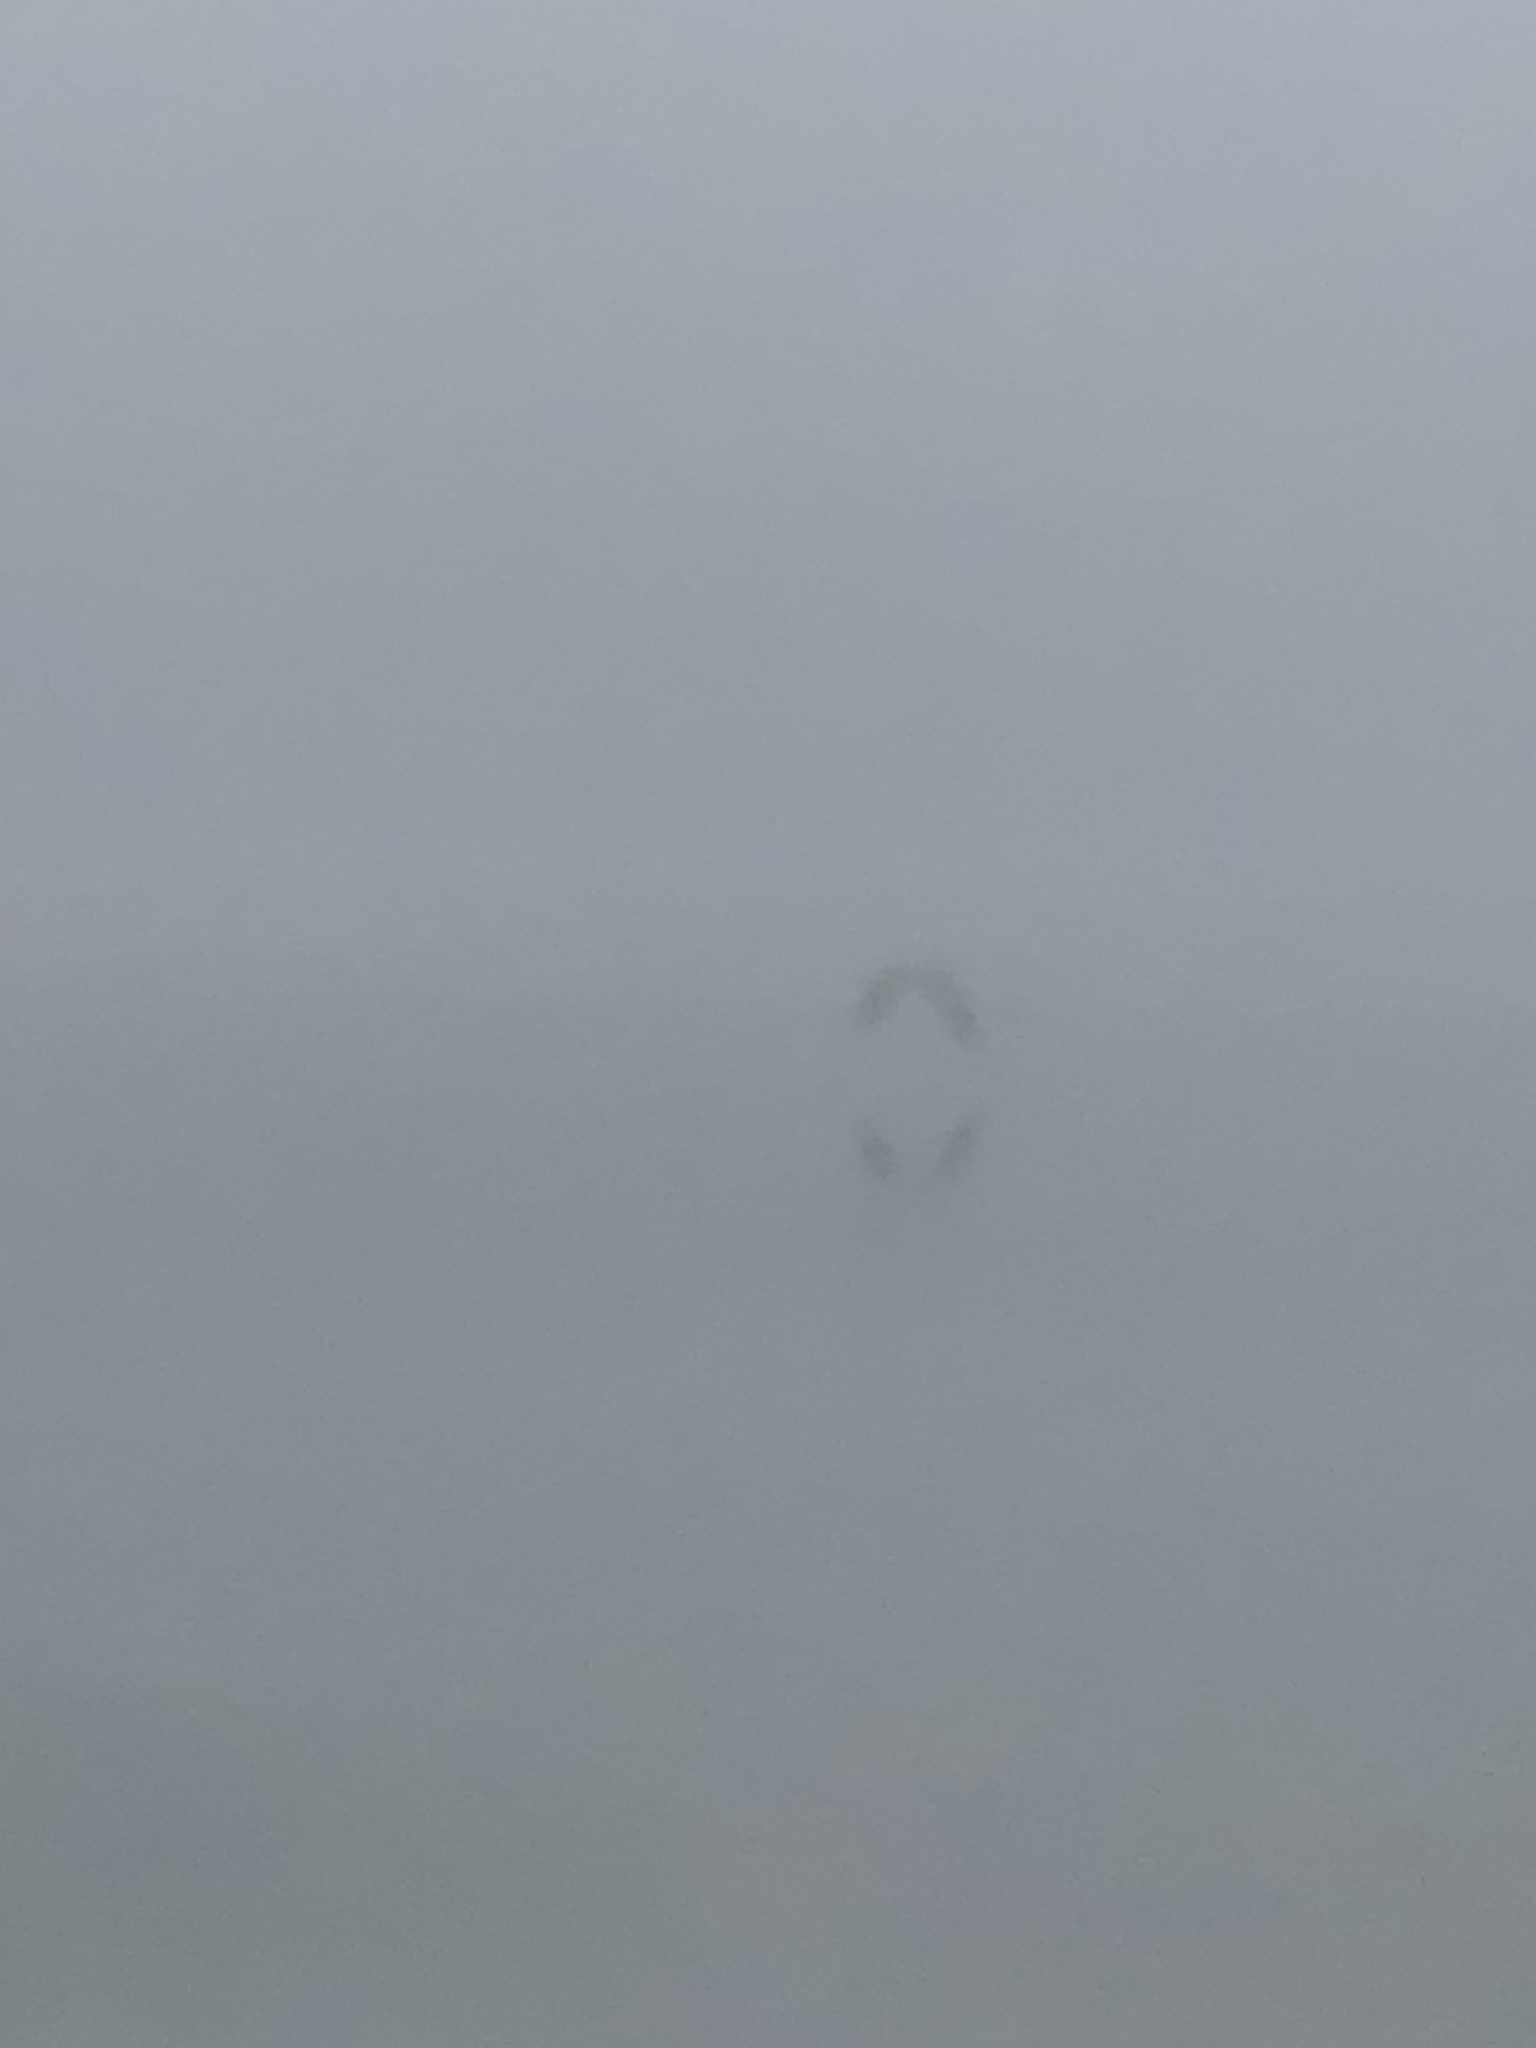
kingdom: Animalia
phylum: Chordata
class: Aves
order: Pelecaniformes
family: Ardeidae
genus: Ardea
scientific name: Ardea herodias
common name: Great blue heron
